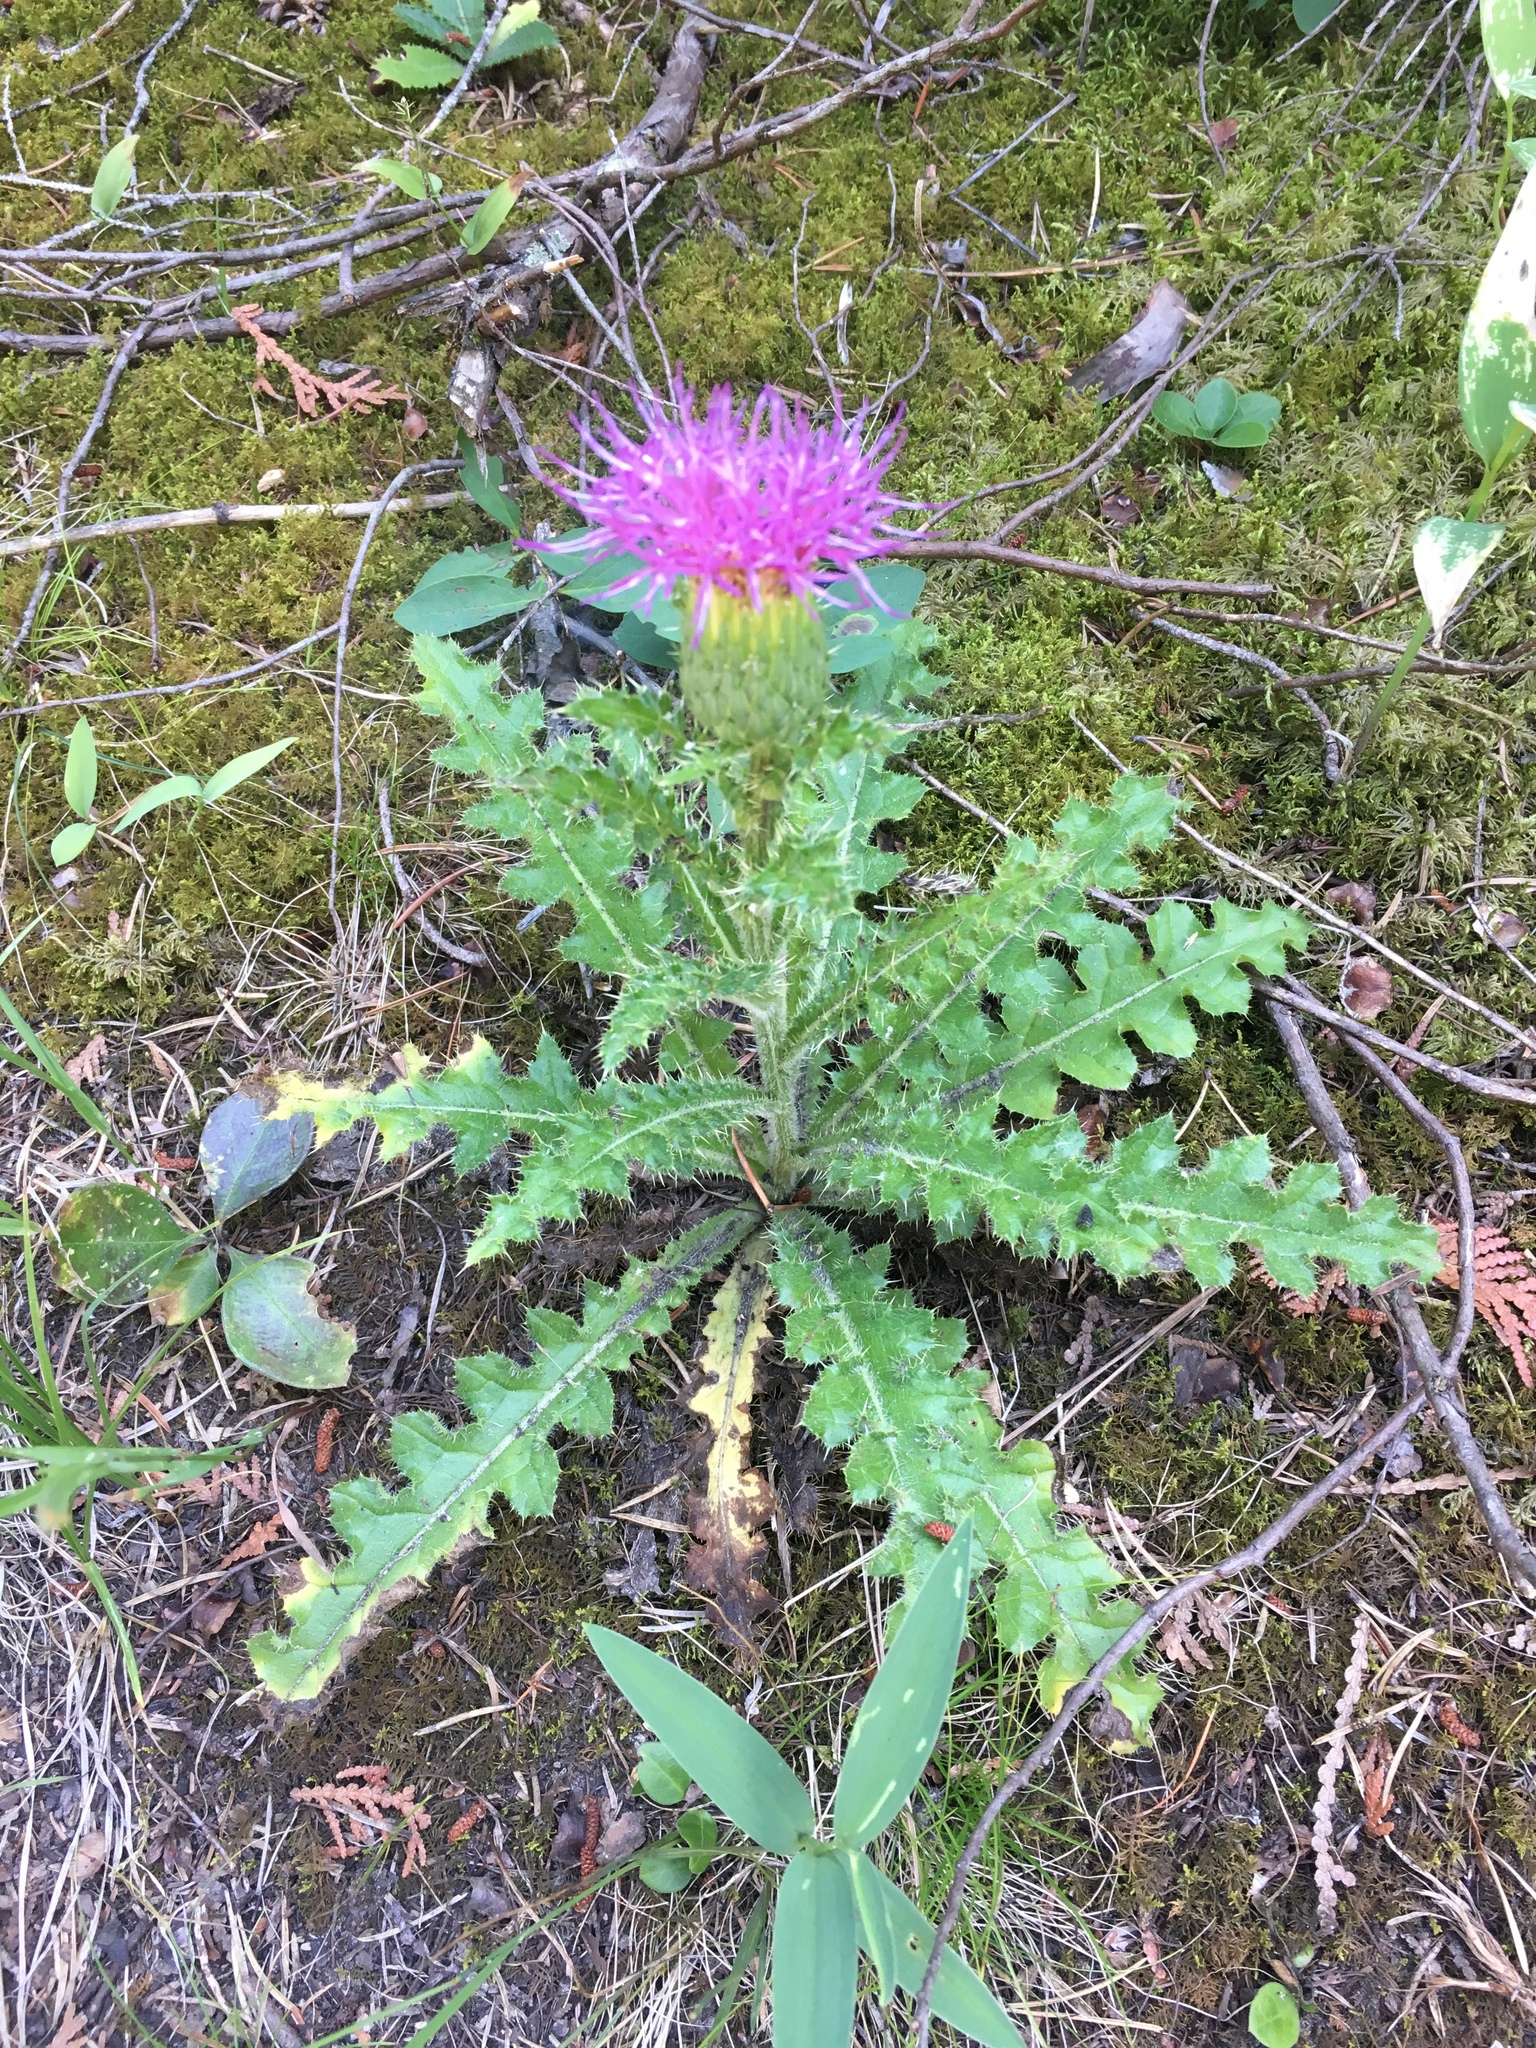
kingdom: Plantae
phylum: Tracheophyta
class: Magnoliopsida
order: Asterales
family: Asteraceae
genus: Cirsium
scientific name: Cirsium pumilum
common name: Pasture thistle
